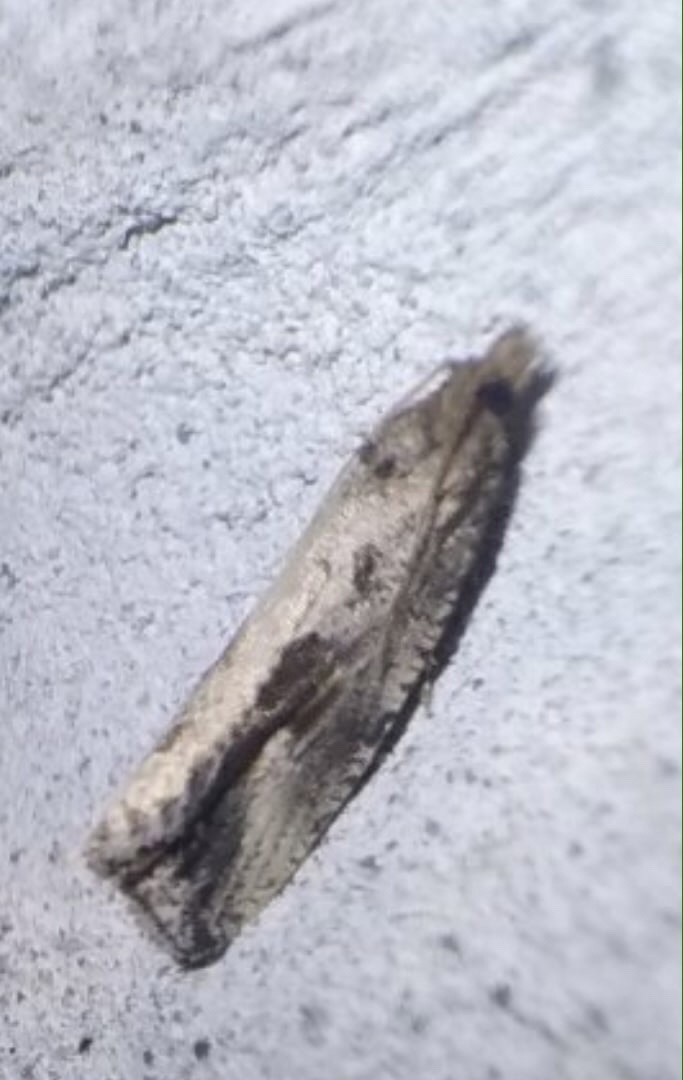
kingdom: Animalia
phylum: Arthropoda
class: Insecta
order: Lepidoptera
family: Tortricidae
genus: Endothenia
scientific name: Endothenia quadrimaculana
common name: Tortricid moth
